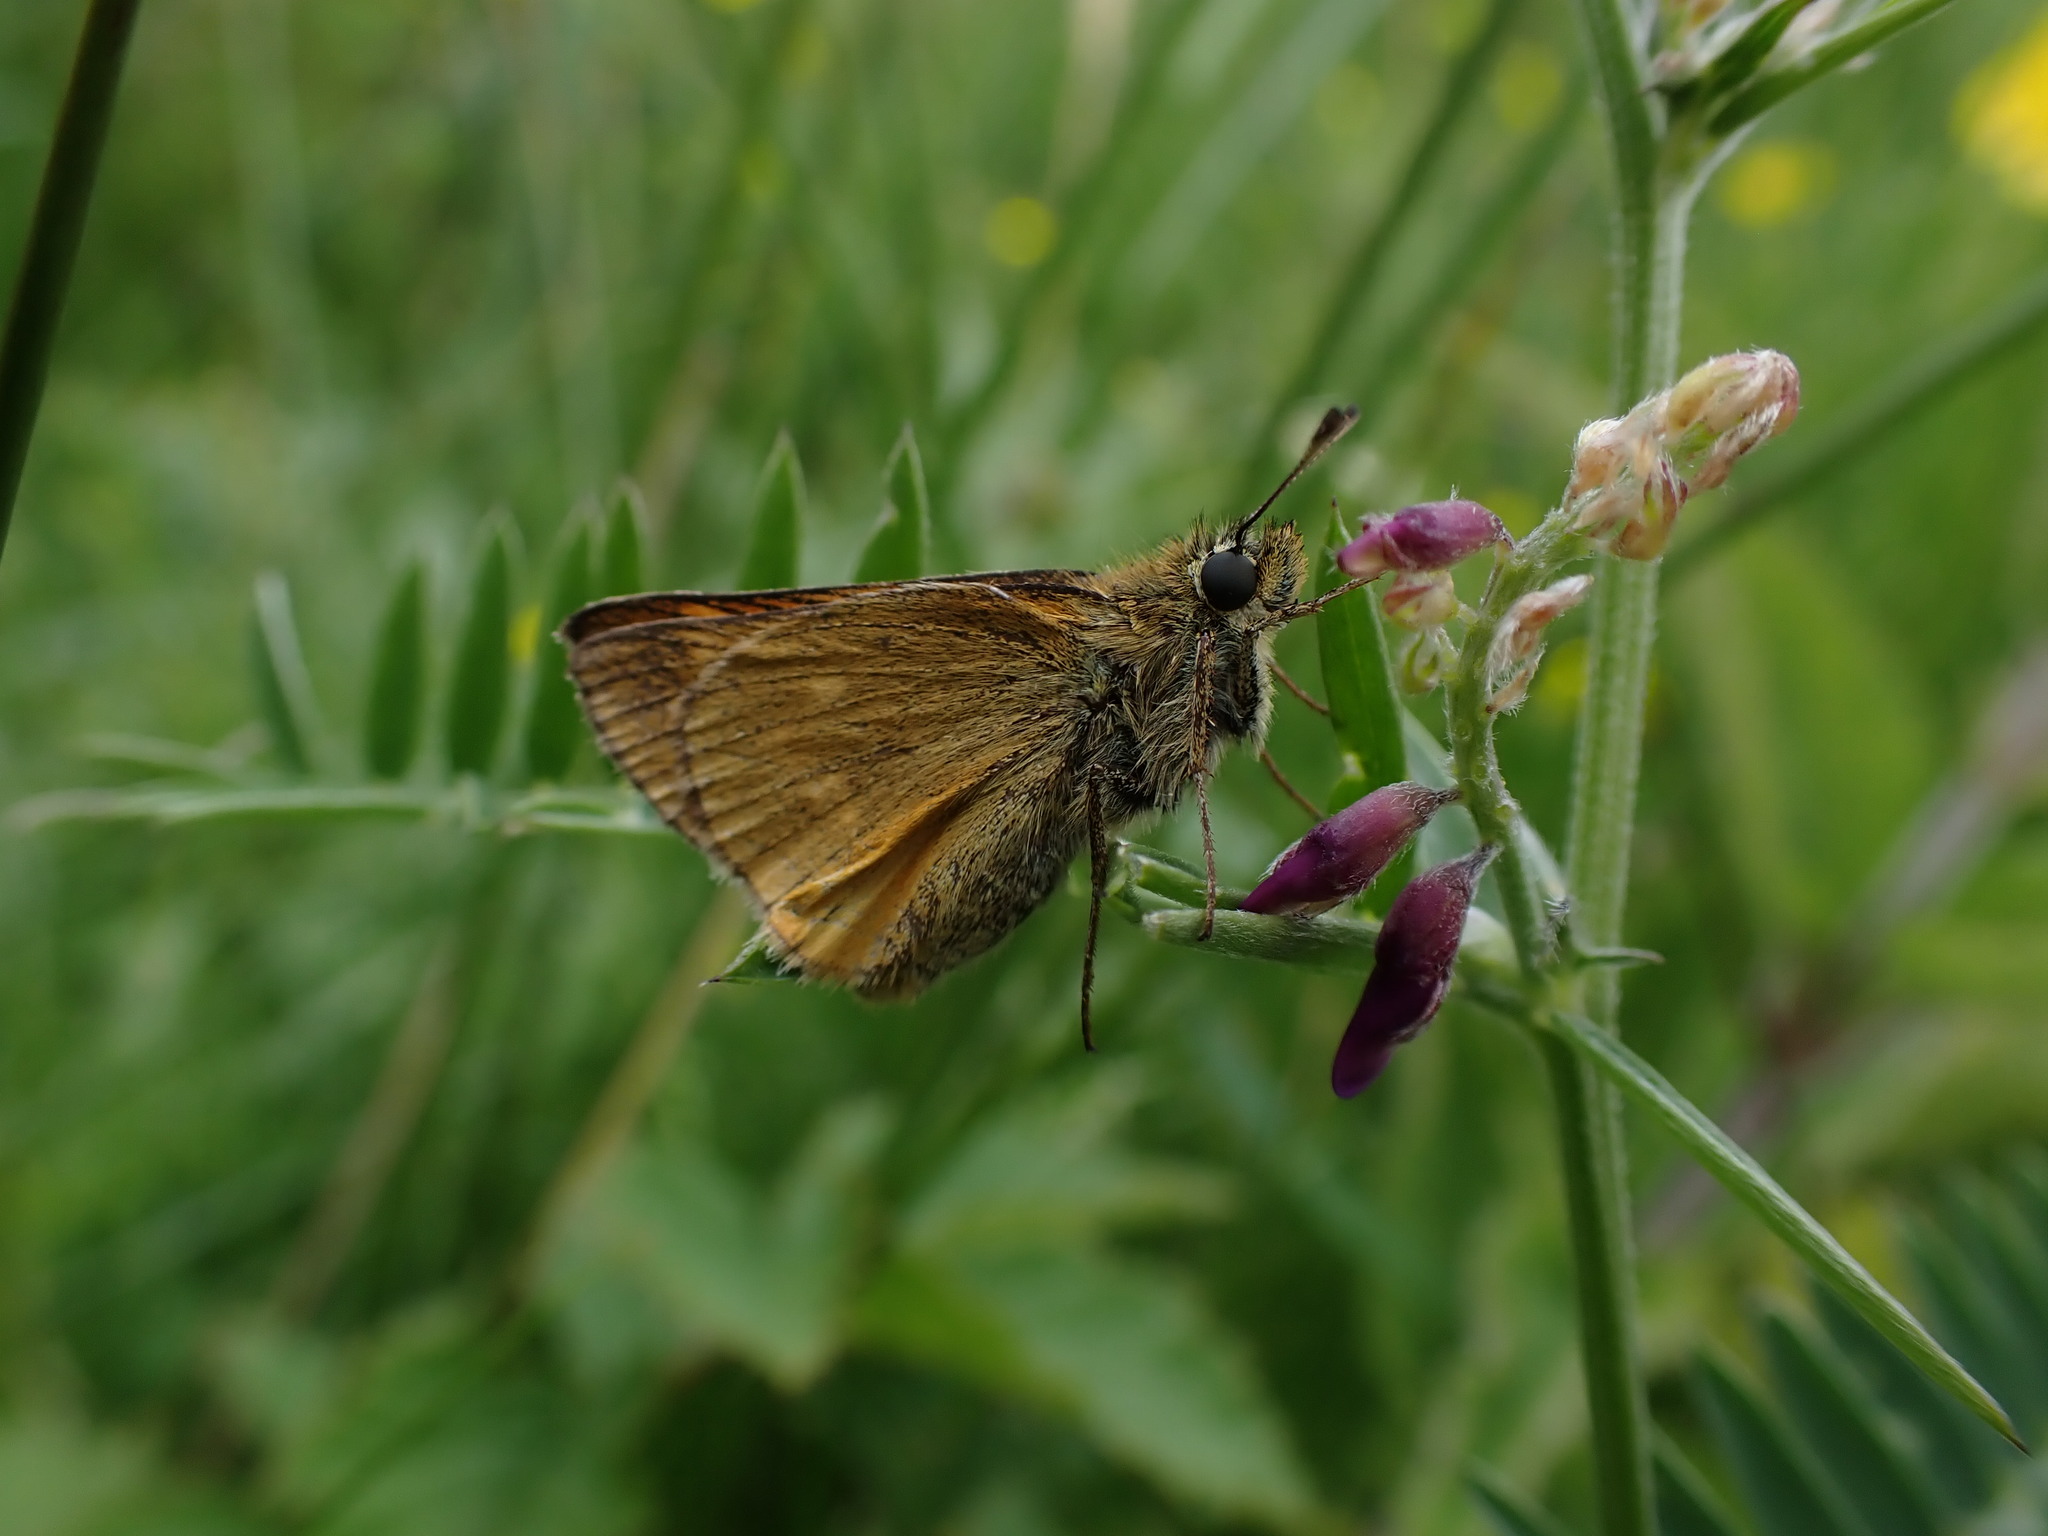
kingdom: Animalia
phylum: Arthropoda
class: Insecta
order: Lepidoptera
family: Hesperiidae
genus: Ochlodes
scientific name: Ochlodes venata
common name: Large skipper
